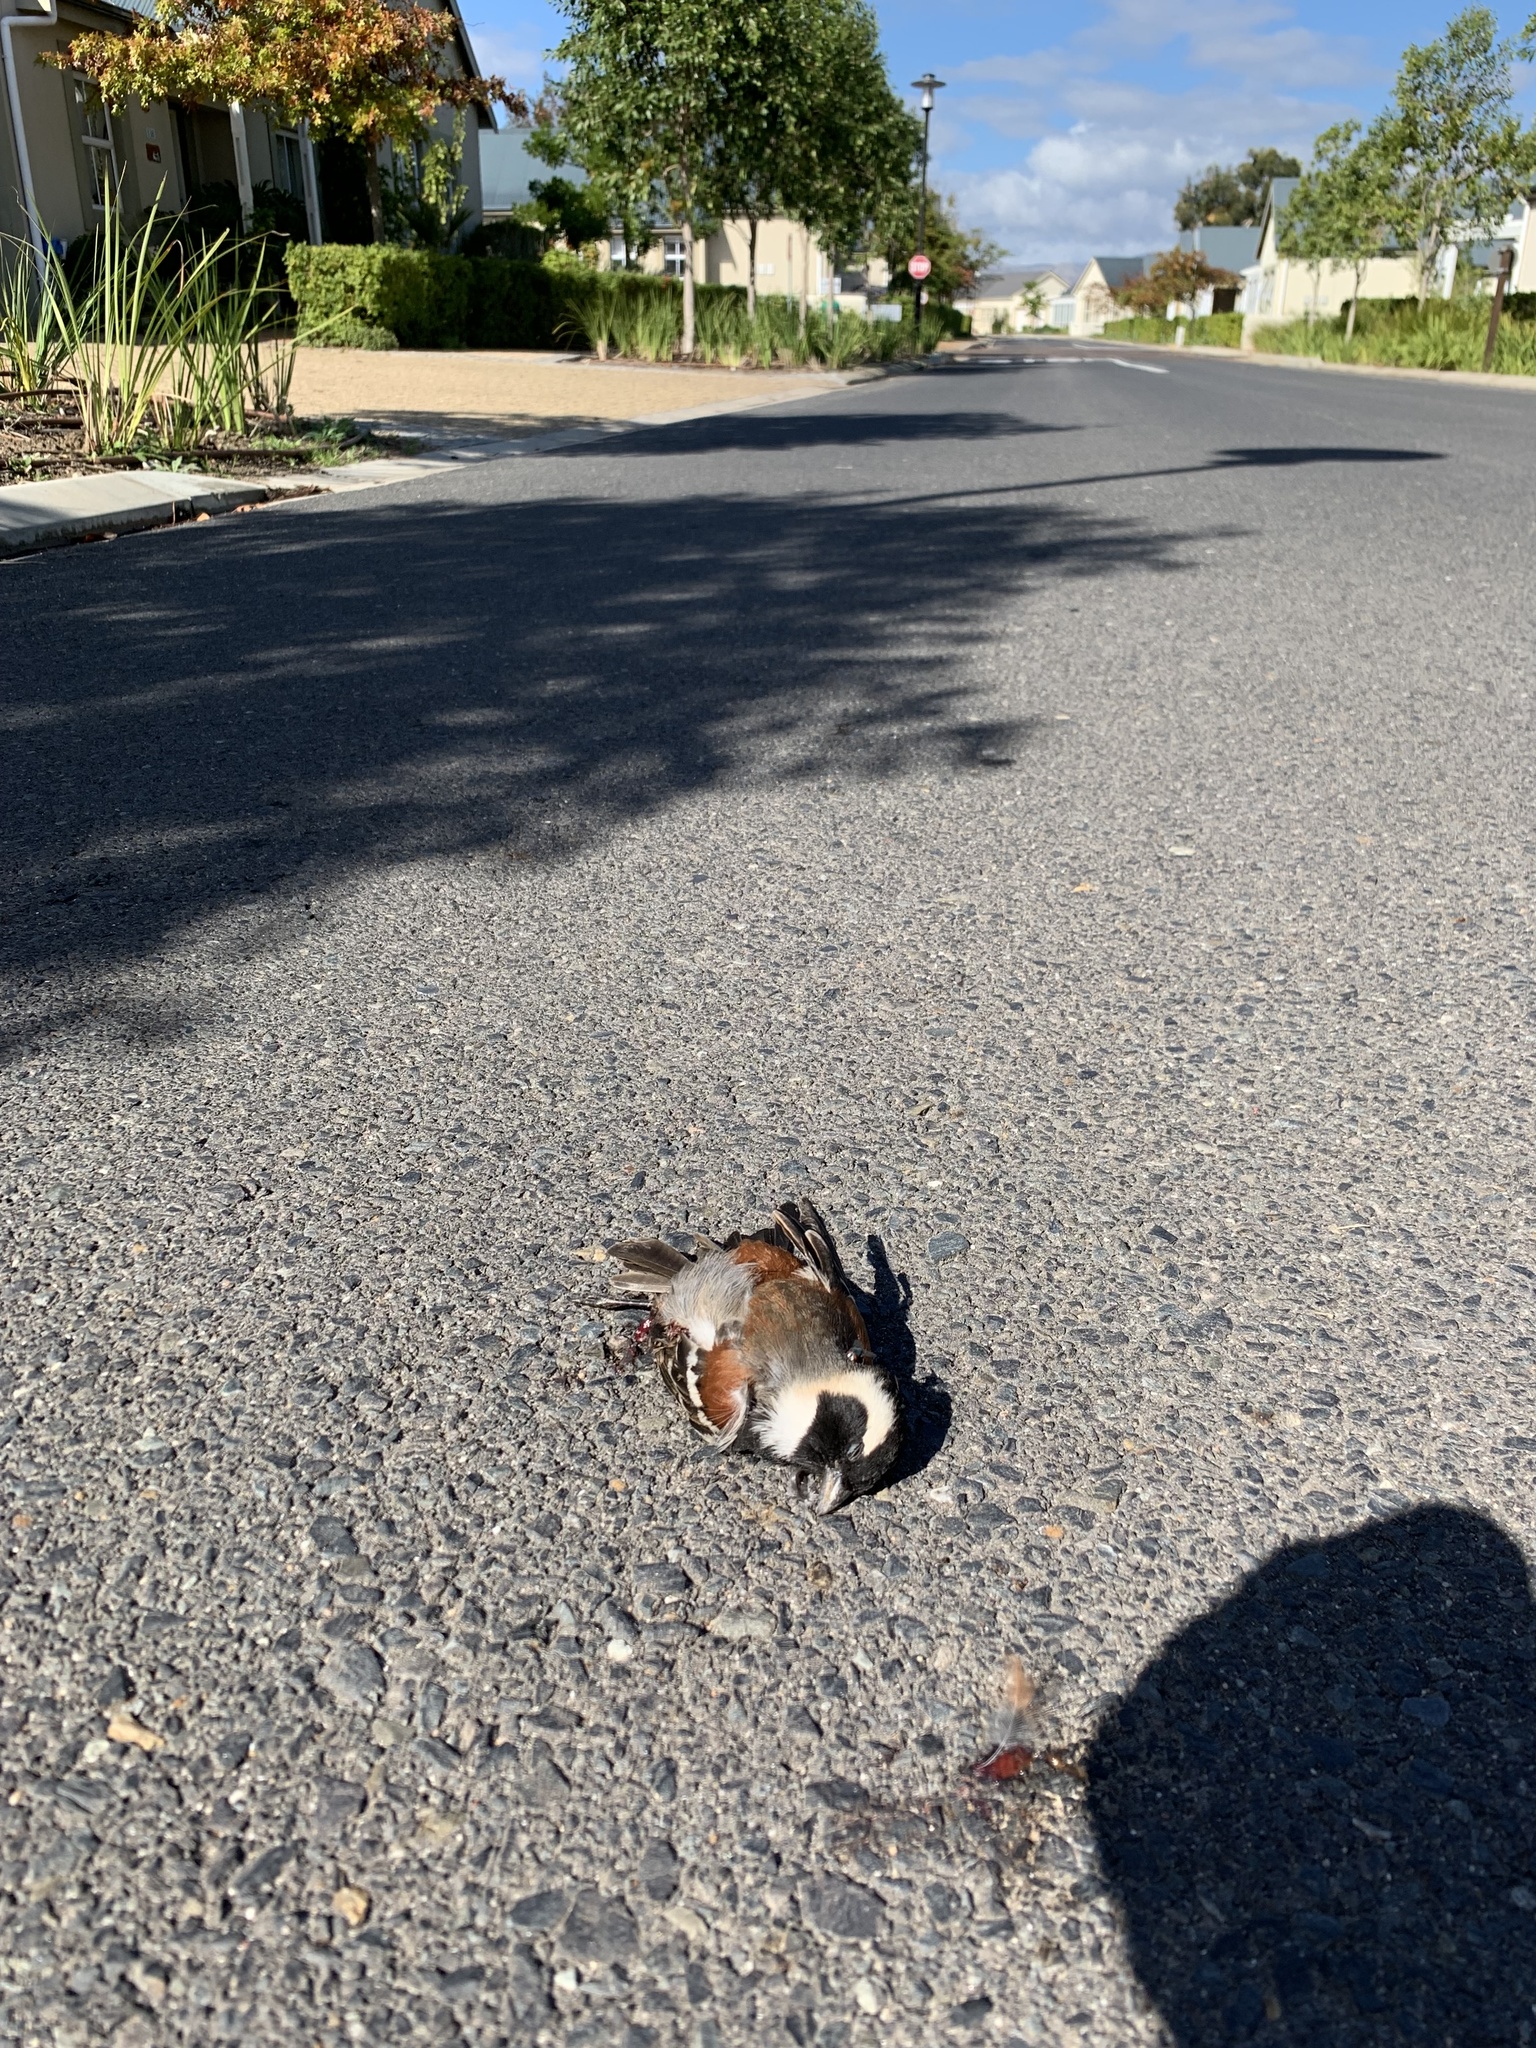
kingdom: Animalia
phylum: Chordata
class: Aves
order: Passeriformes
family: Passeridae
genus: Passer
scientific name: Passer melanurus
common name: Cape sparrow
